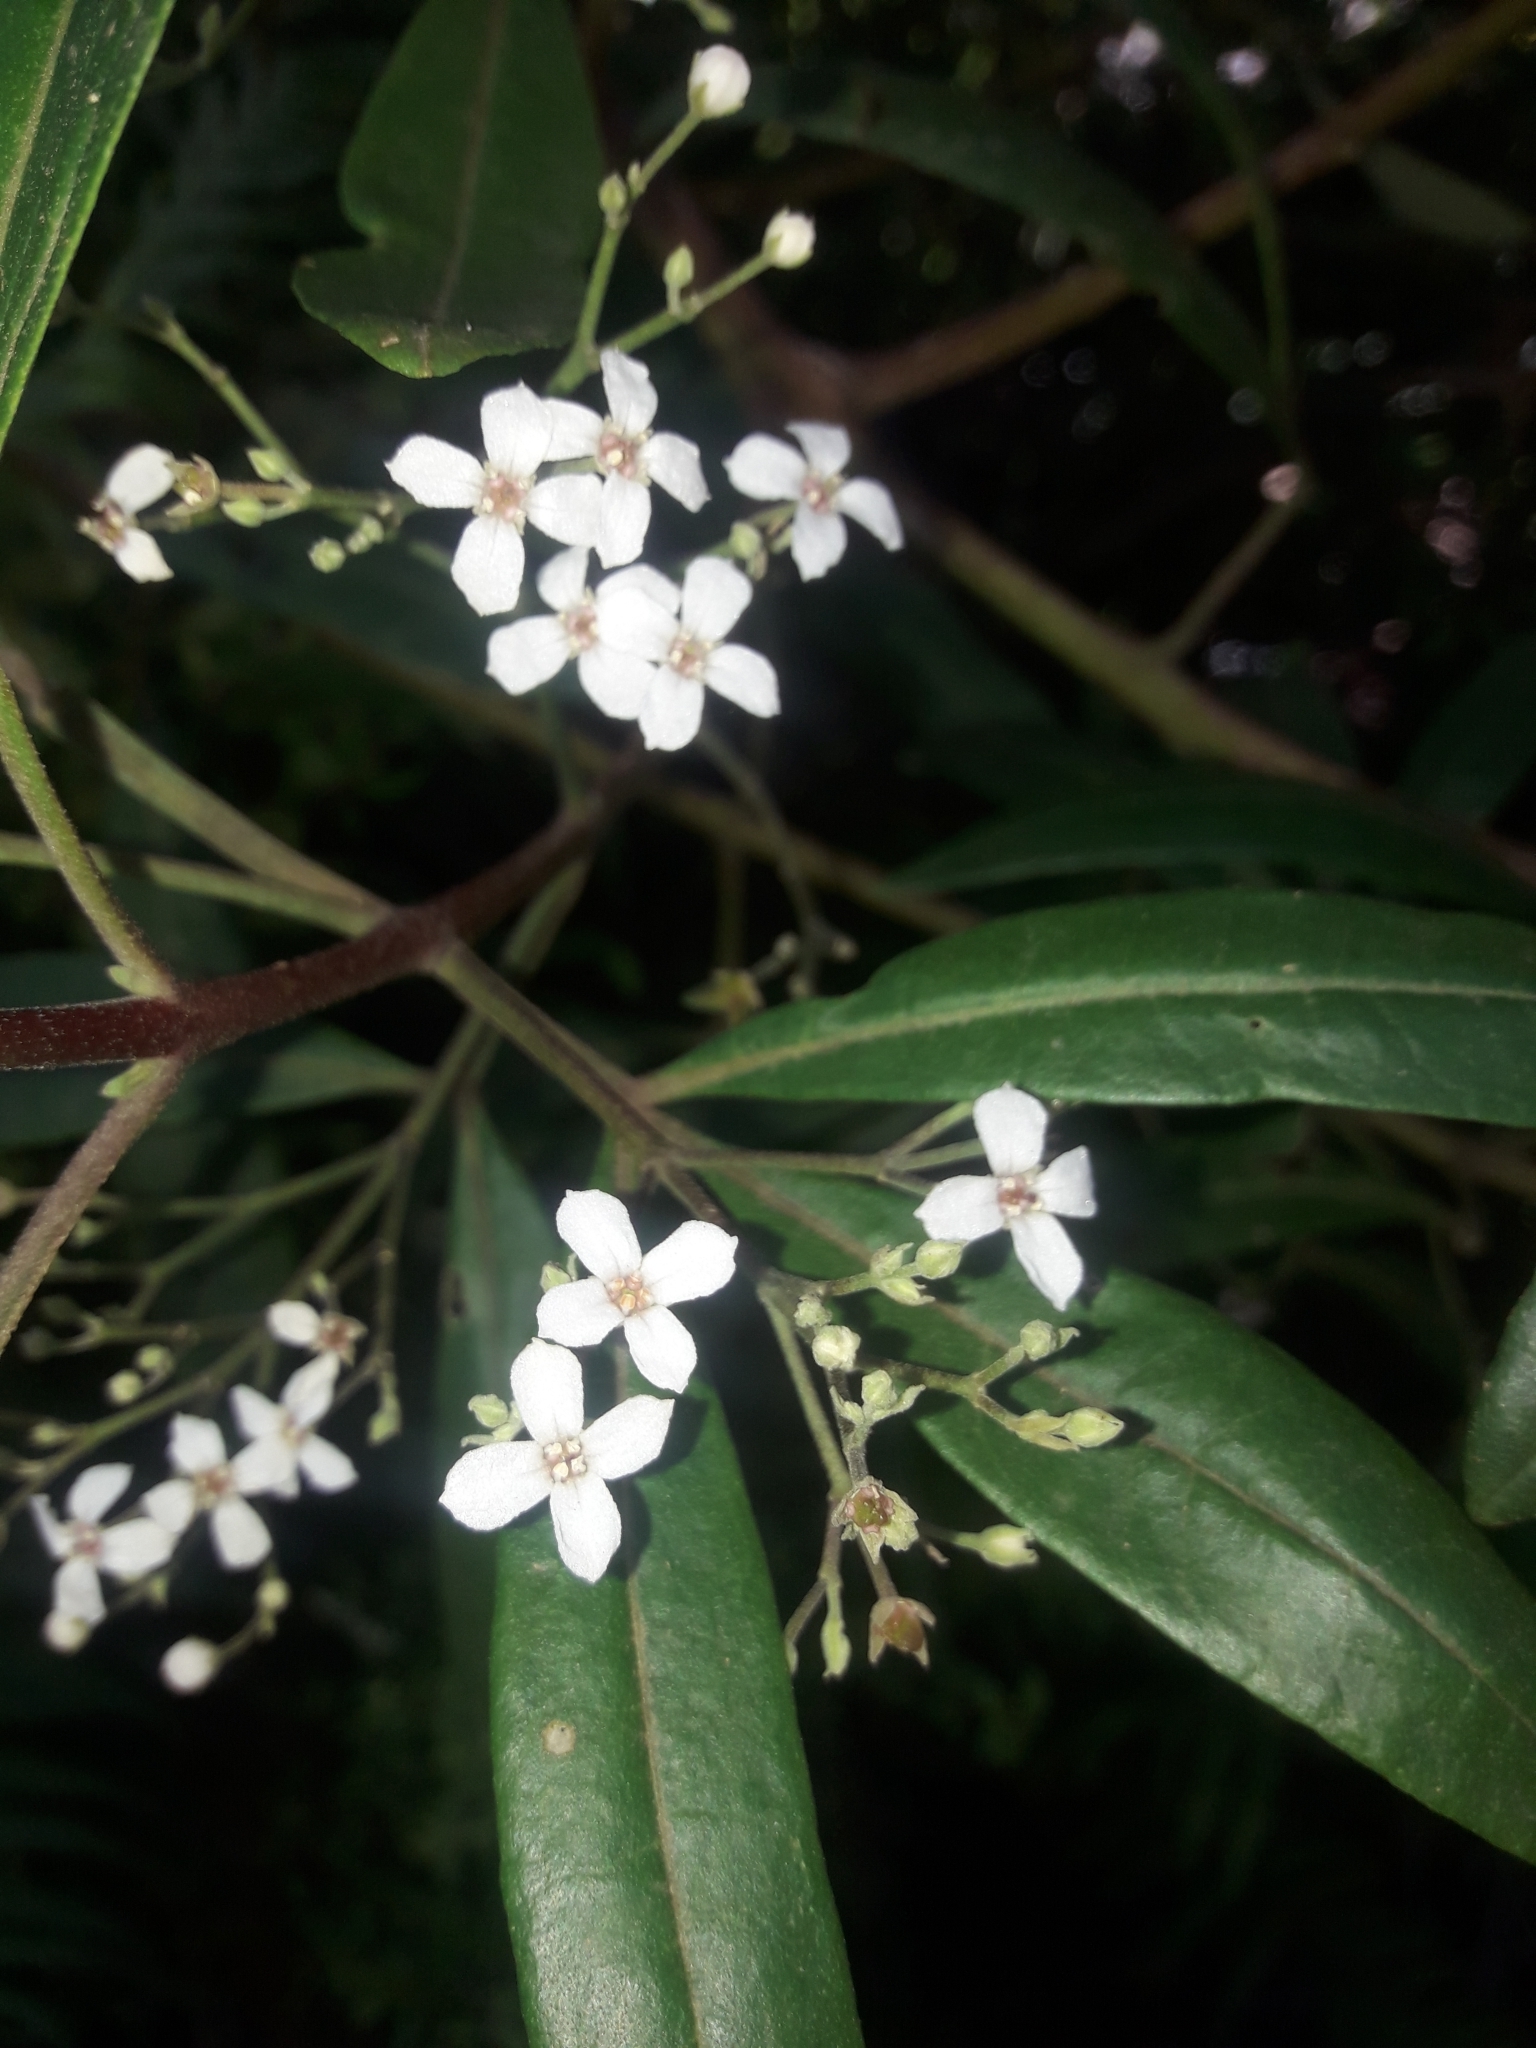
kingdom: Plantae
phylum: Tracheophyta
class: Magnoliopsida
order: Sapindales
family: Rutaceae
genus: Zieria
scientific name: Zieria arborescens
